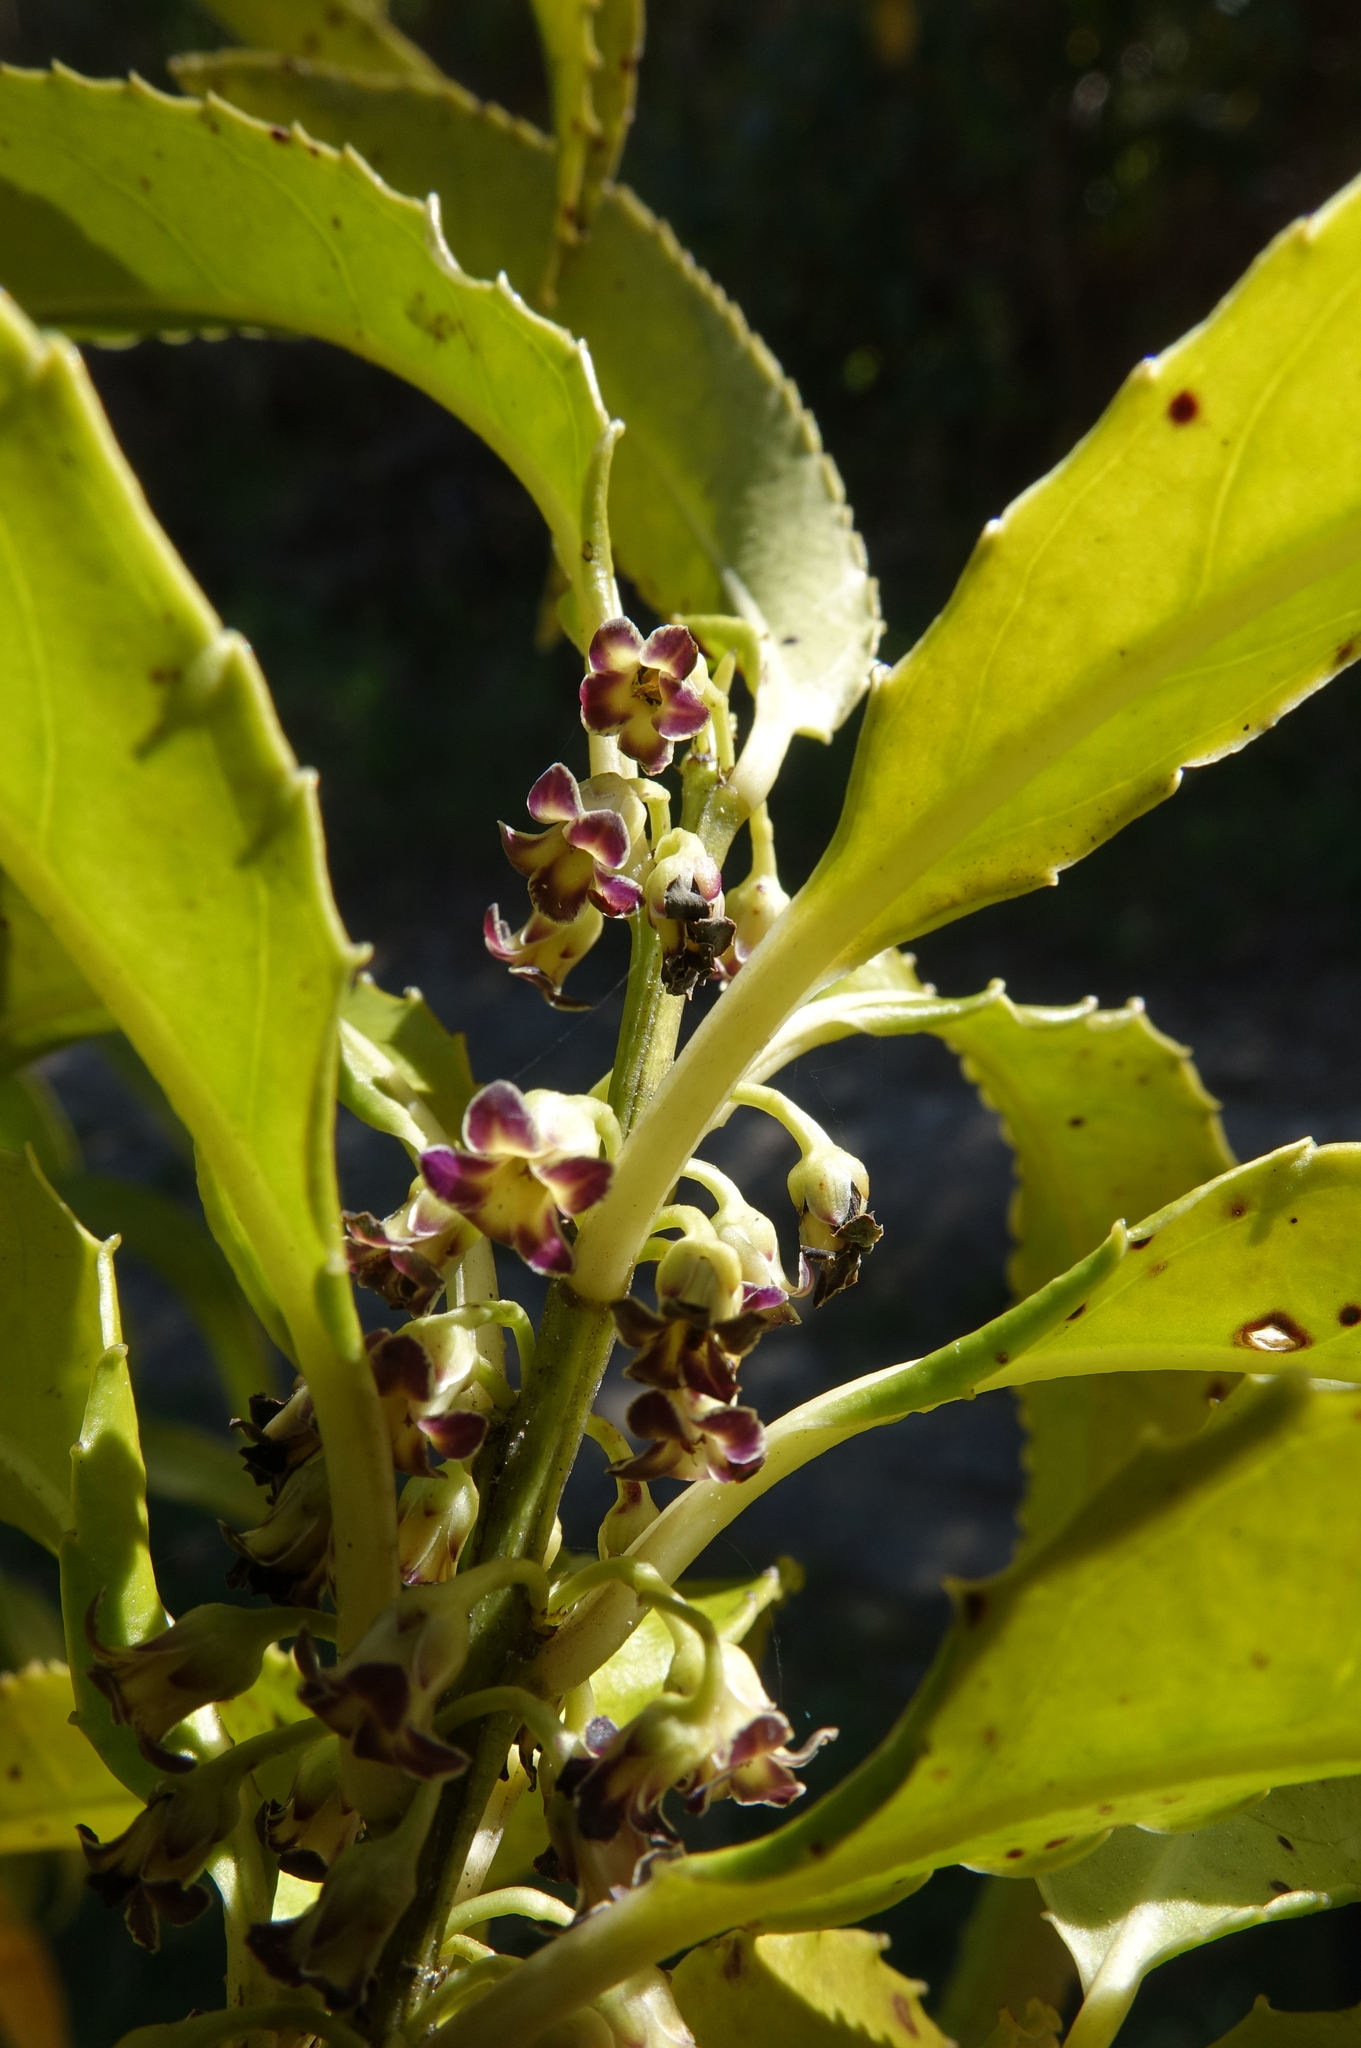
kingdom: Plantae
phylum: Tracheophyta
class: Magnoliopsida
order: Malpighiales
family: Violaceae
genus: Melicytus
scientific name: Melicytus lanceolatus
